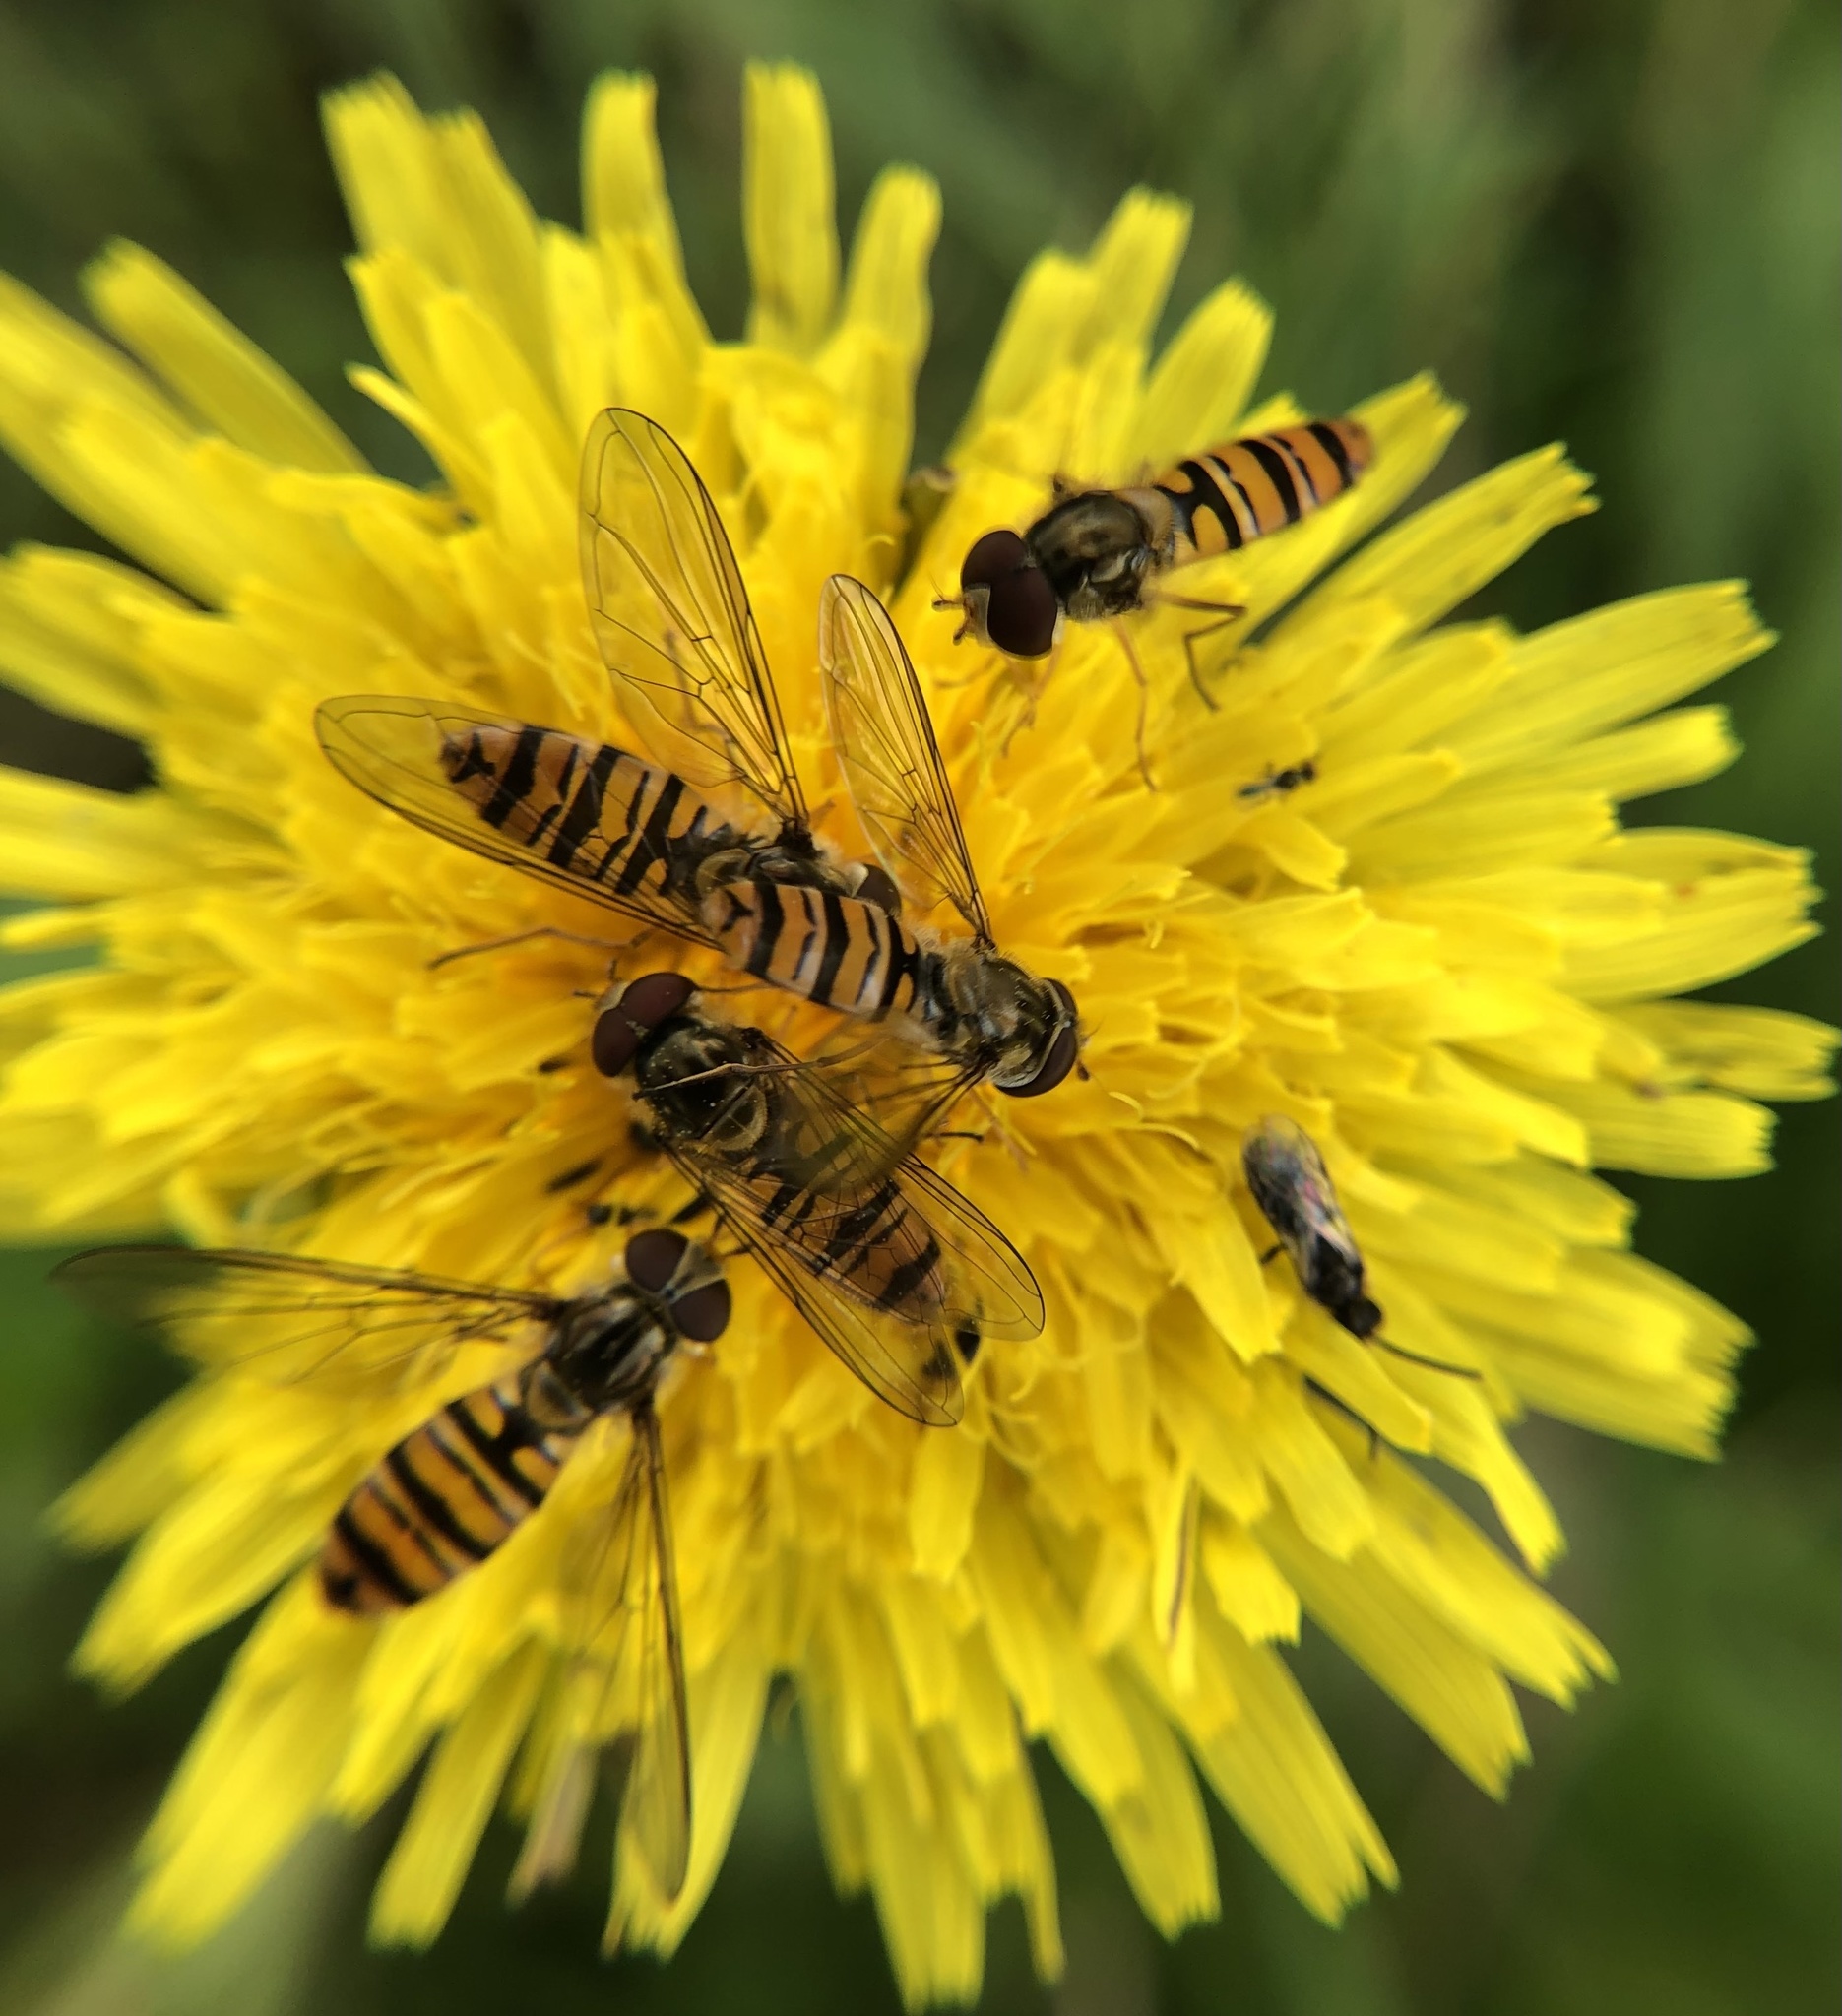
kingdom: Animalia
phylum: Arthropoda
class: Insecta
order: Diptera
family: Syrphidae
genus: Episyrphus
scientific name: Episyrphus balteatus
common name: Marmalade hoverfly
